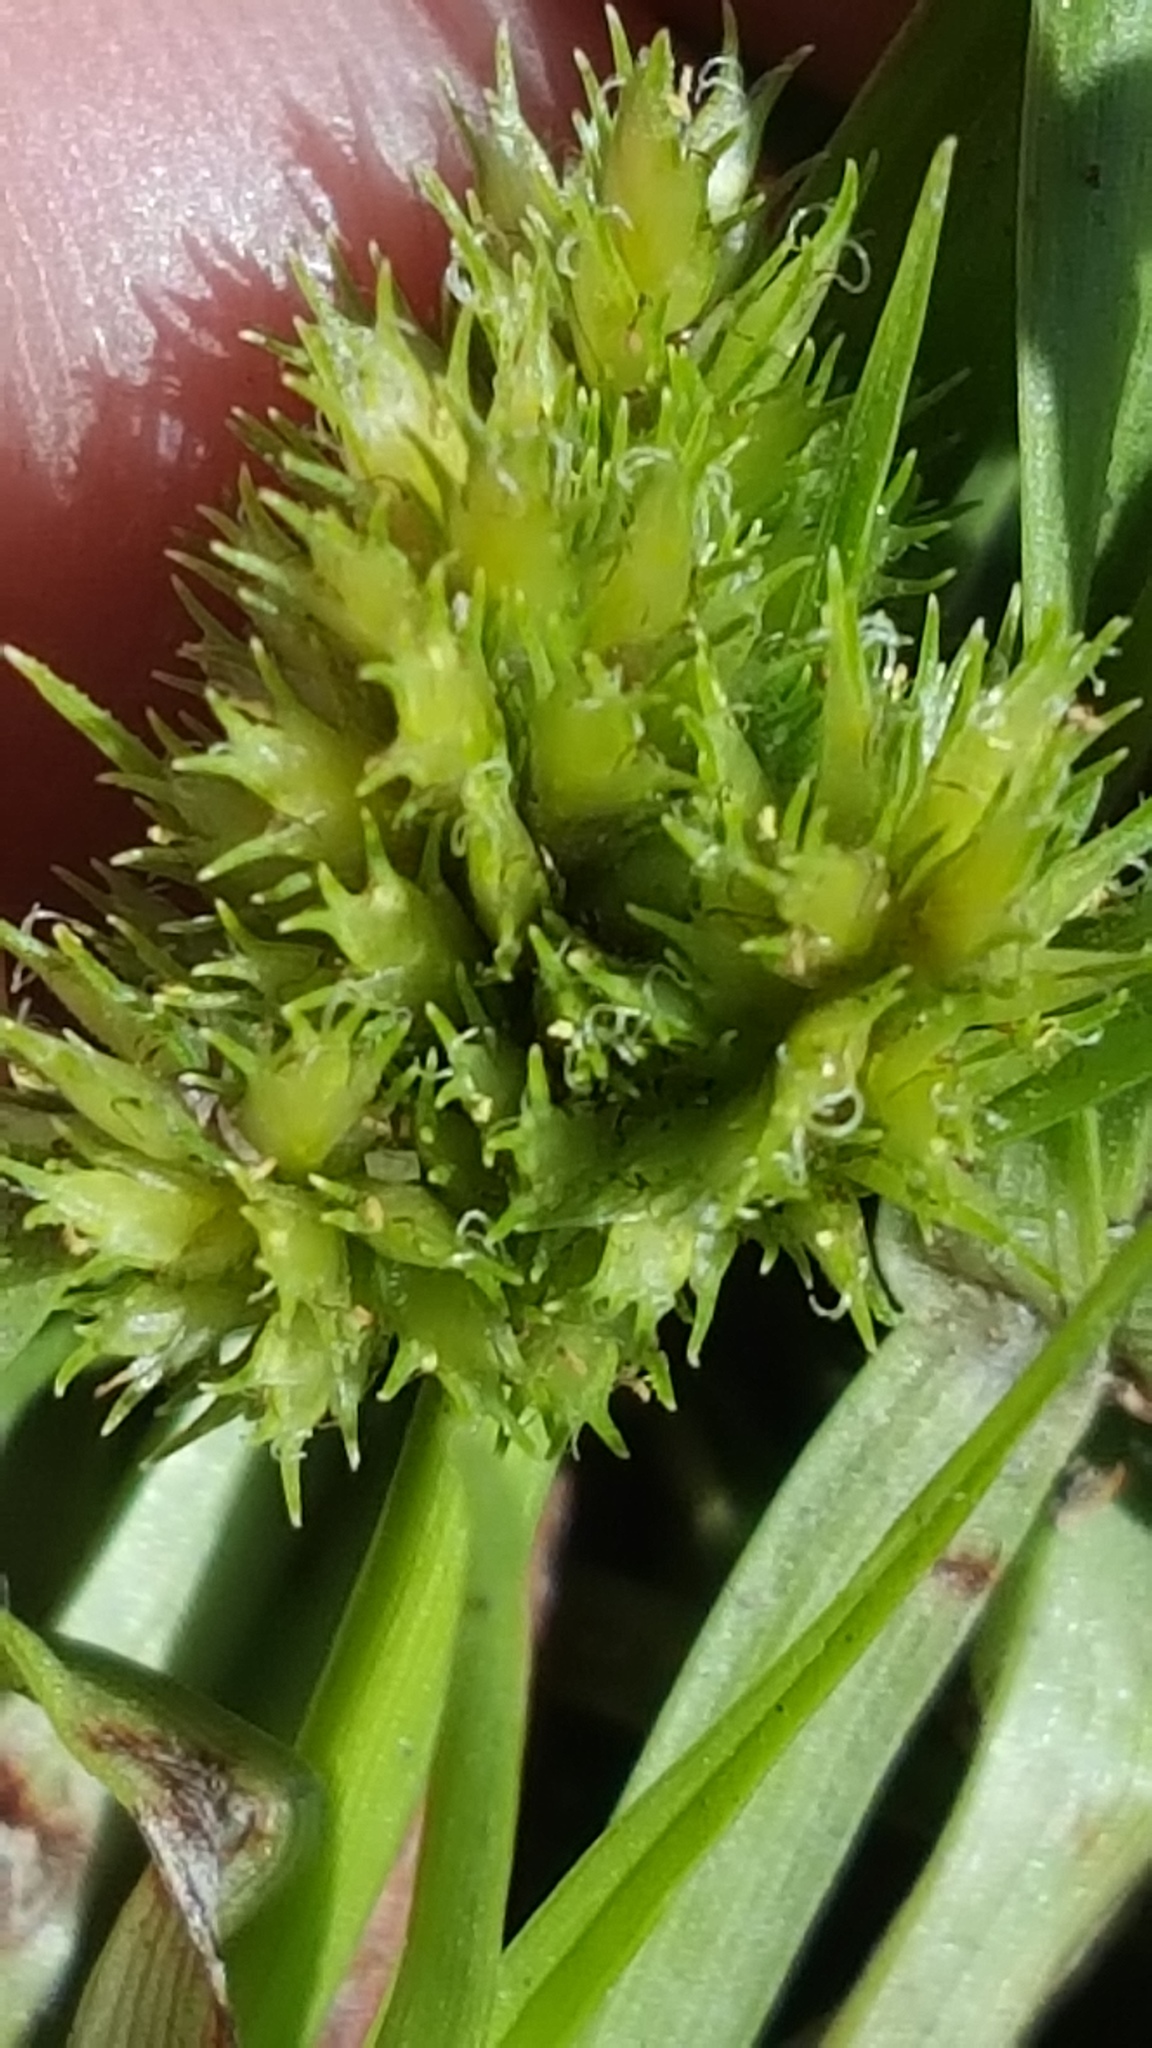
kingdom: Plantae
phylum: Tracheophyta
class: Liliopsida
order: Poales
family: Cyperaceae
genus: Cyperus
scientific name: Cyperus squarrosus
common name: Awned cyperus
